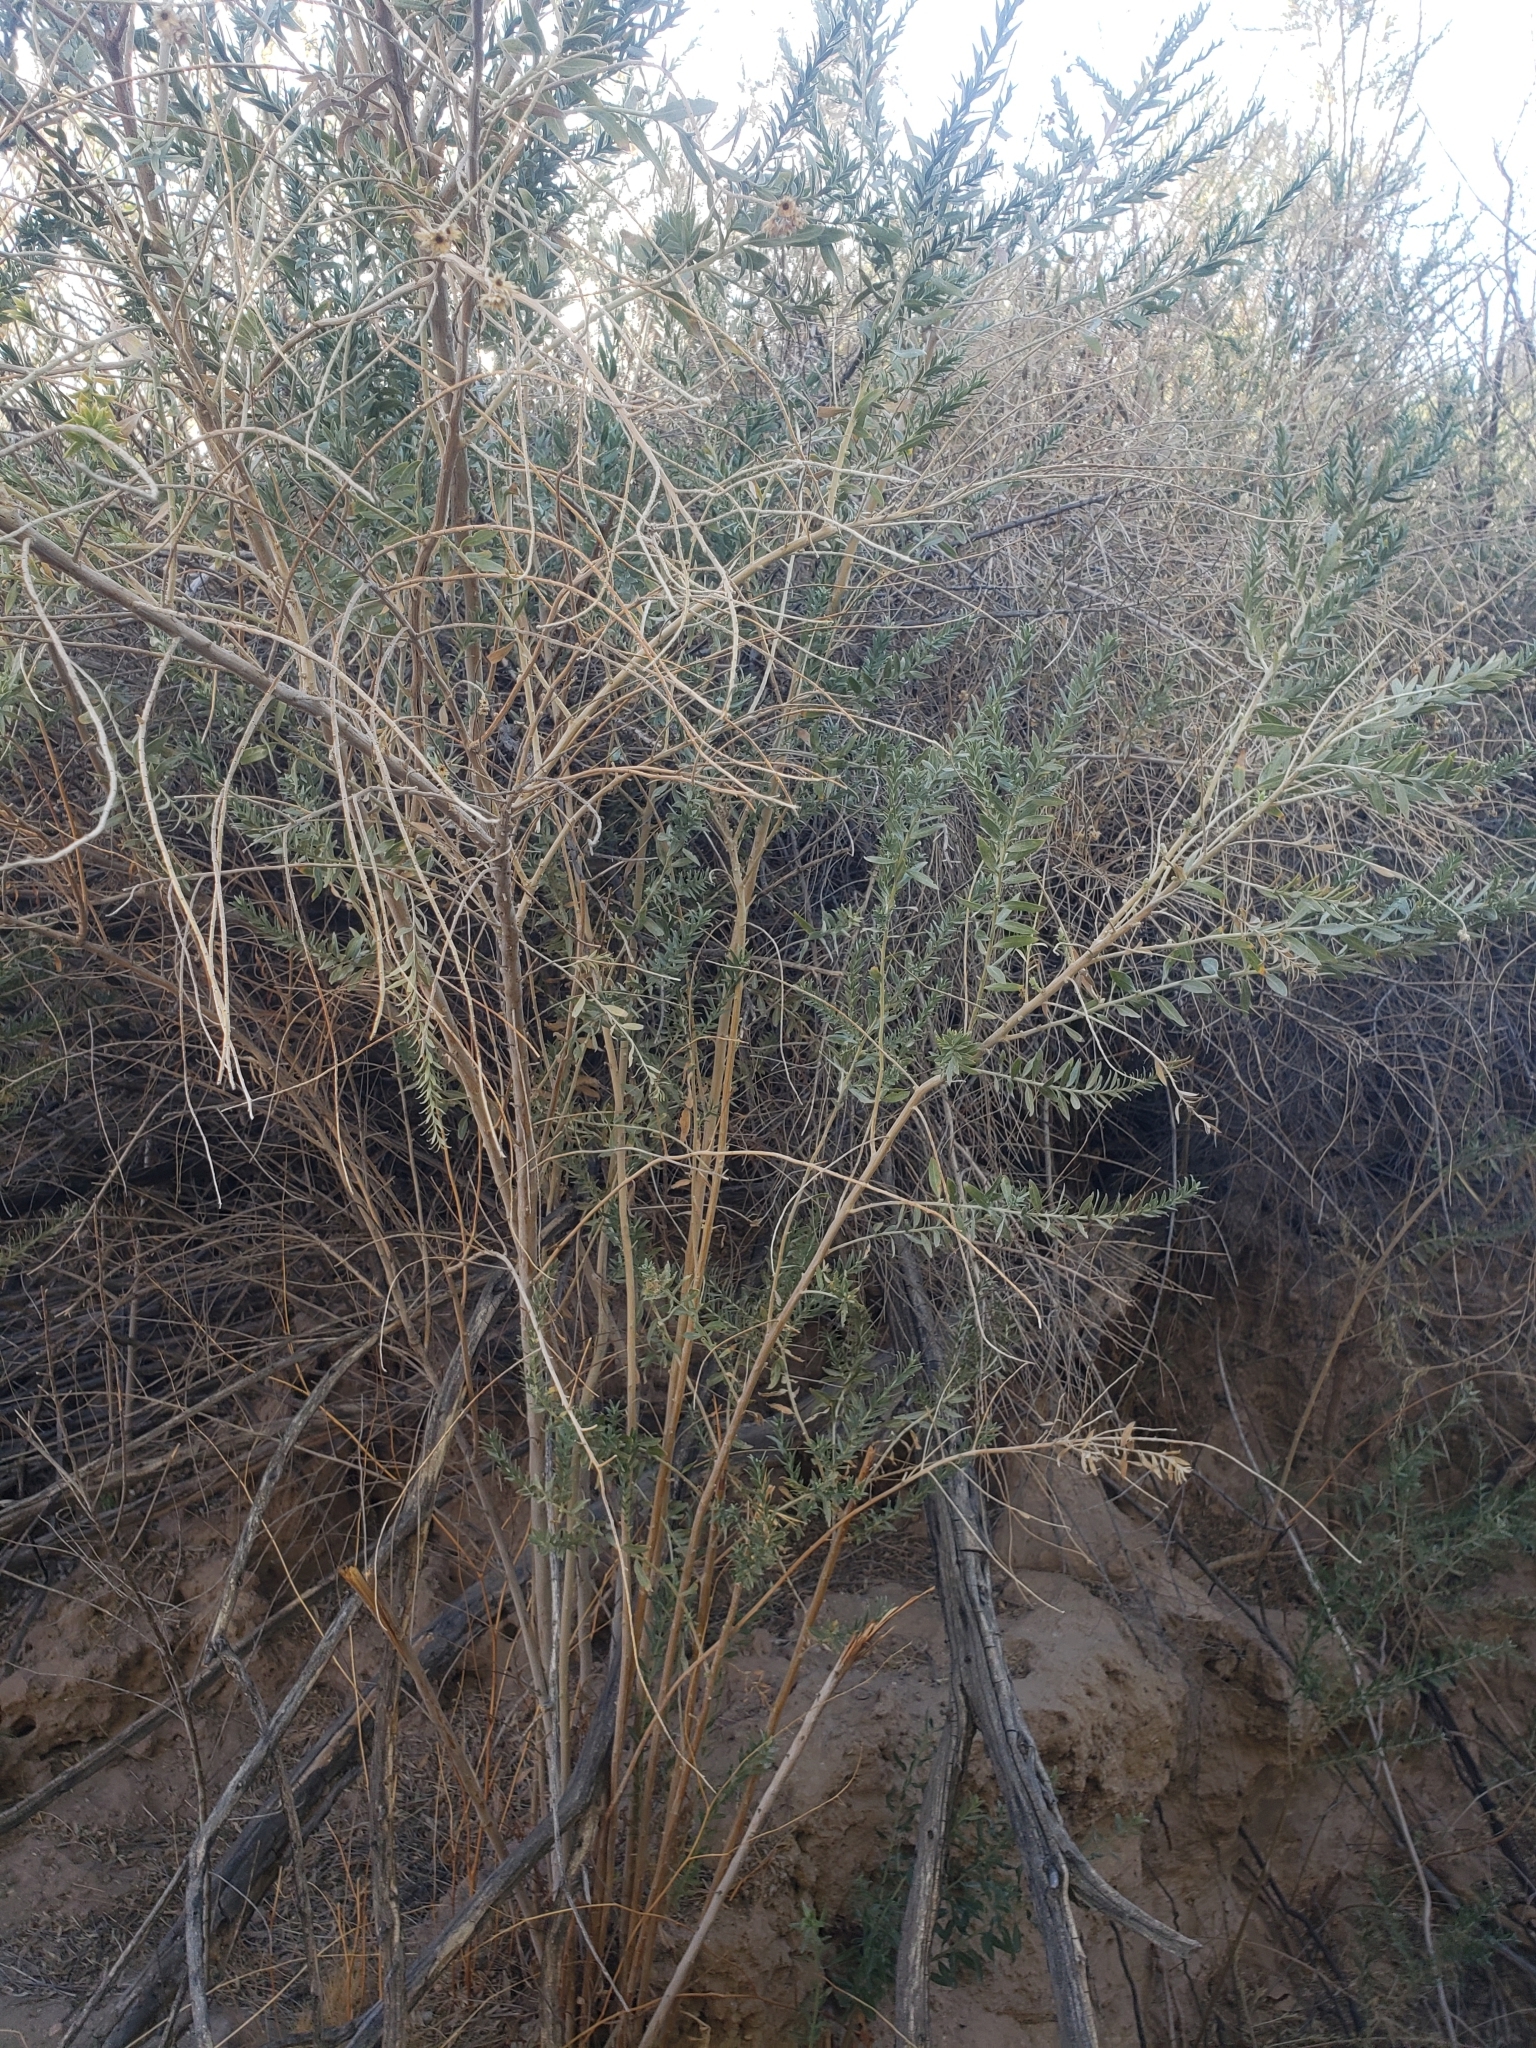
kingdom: Plantae
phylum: Tracheophyta
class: Magnoliopsida
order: Asterales
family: Asteraceae
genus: Pluchea
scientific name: Pluchea sericea
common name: Arrow-weed
